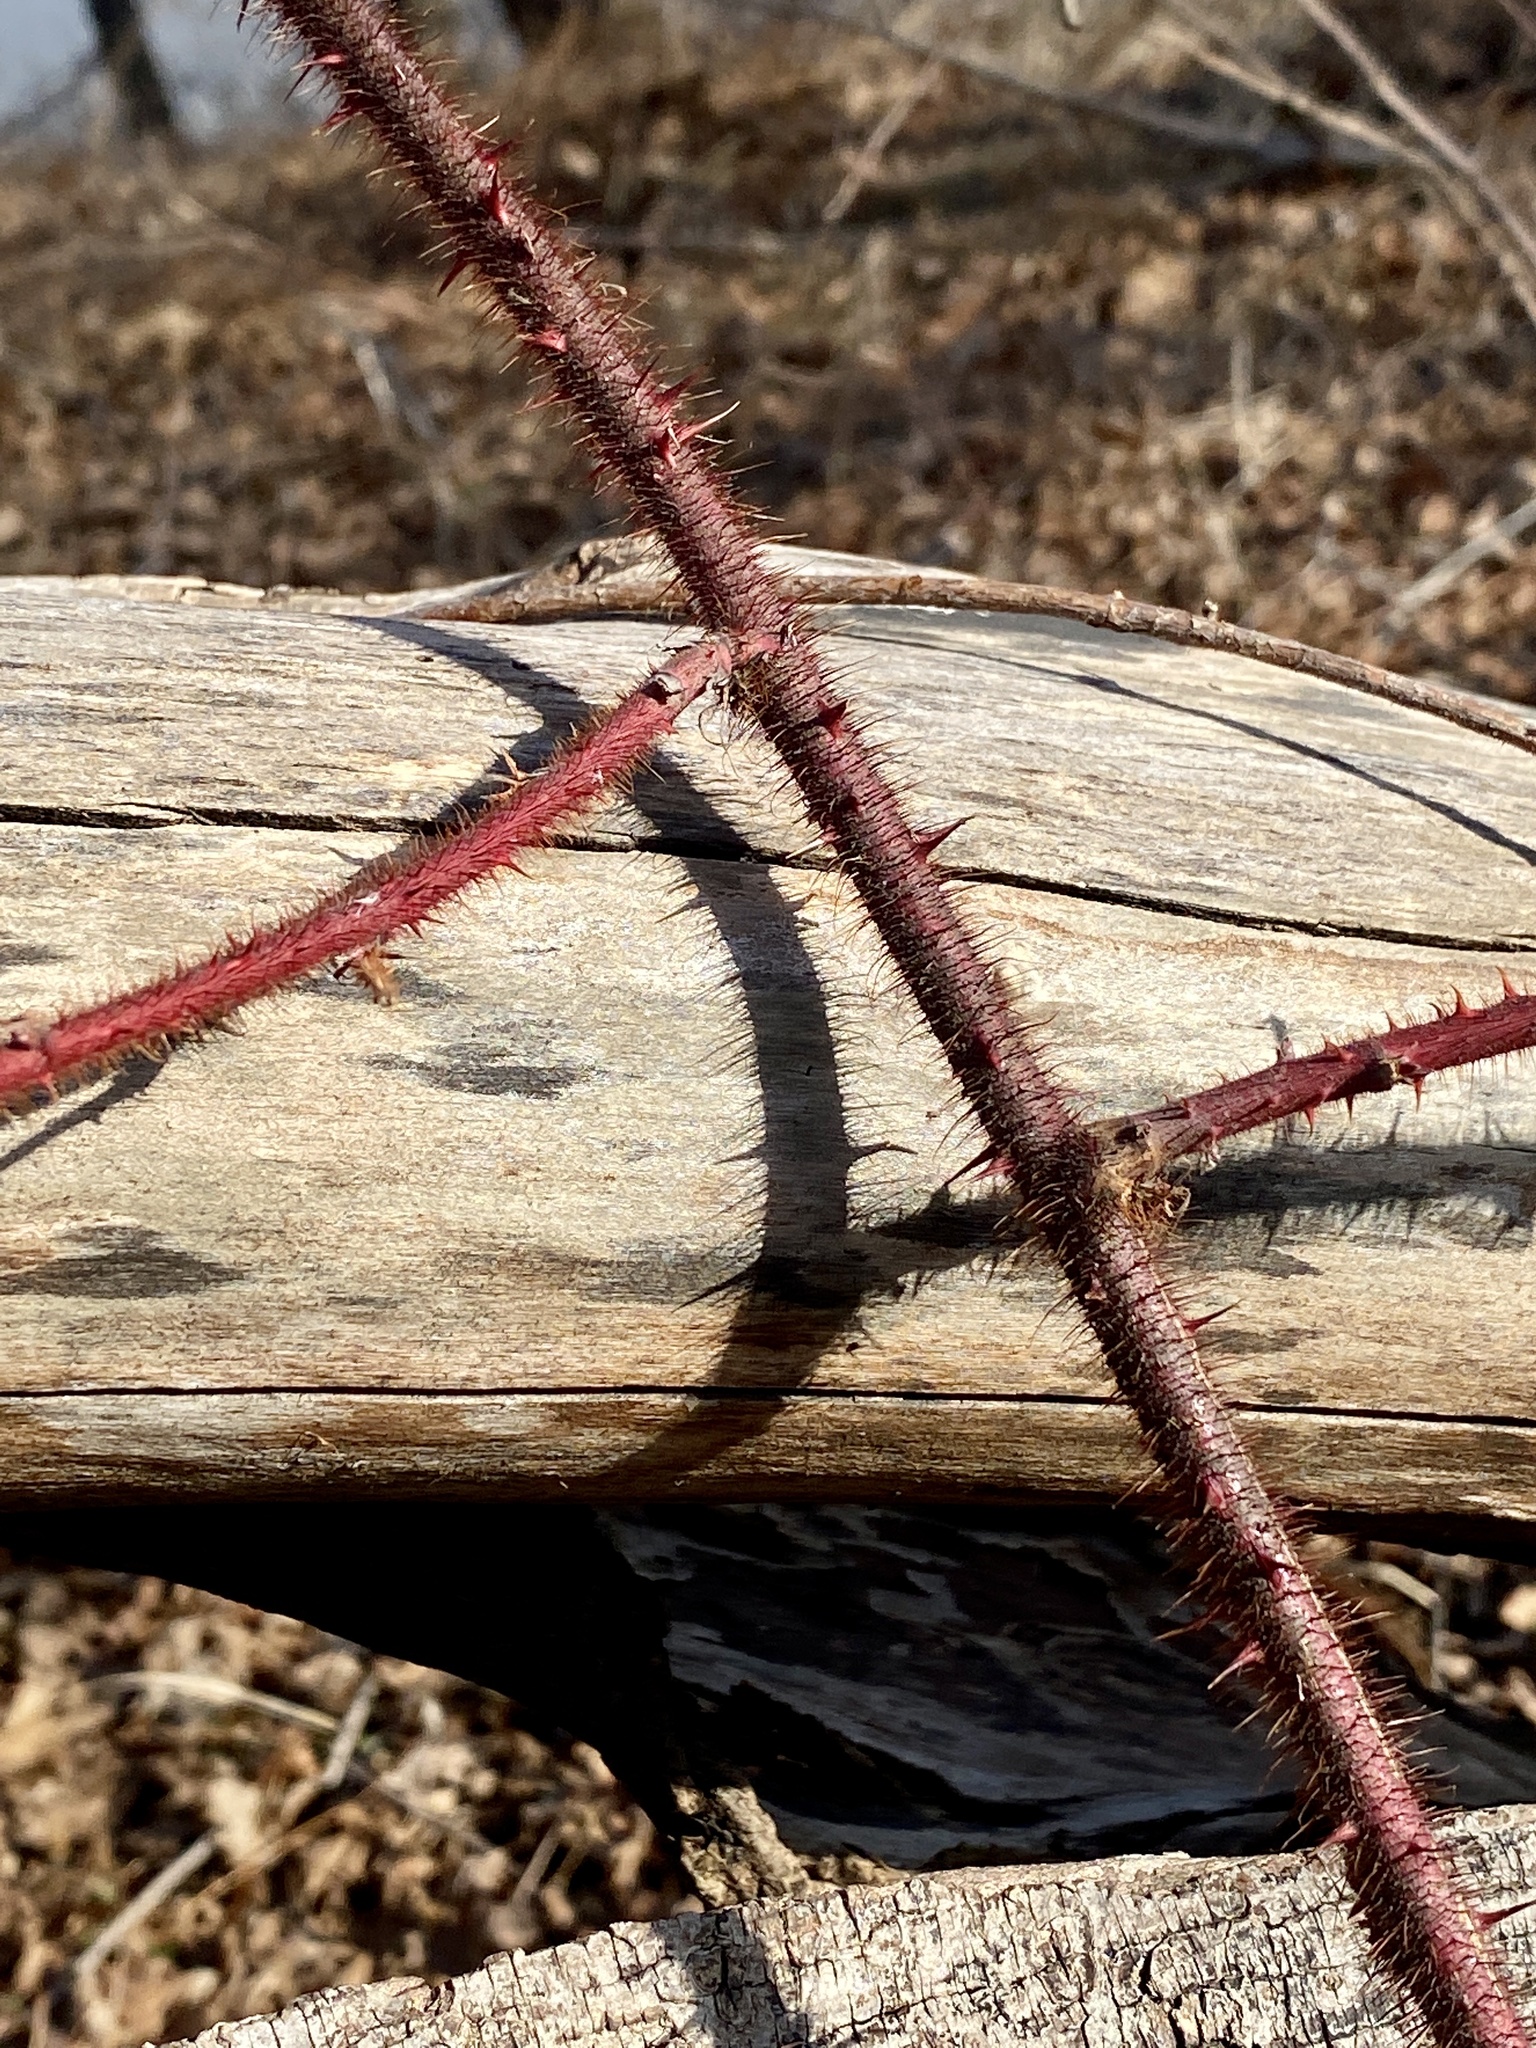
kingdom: Plantae
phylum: Tracheophyta
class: Magnoliopsida
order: Rosales
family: Rosaceae
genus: Rubus
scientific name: Rubus phoenicolasius
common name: Japanese wineberry
